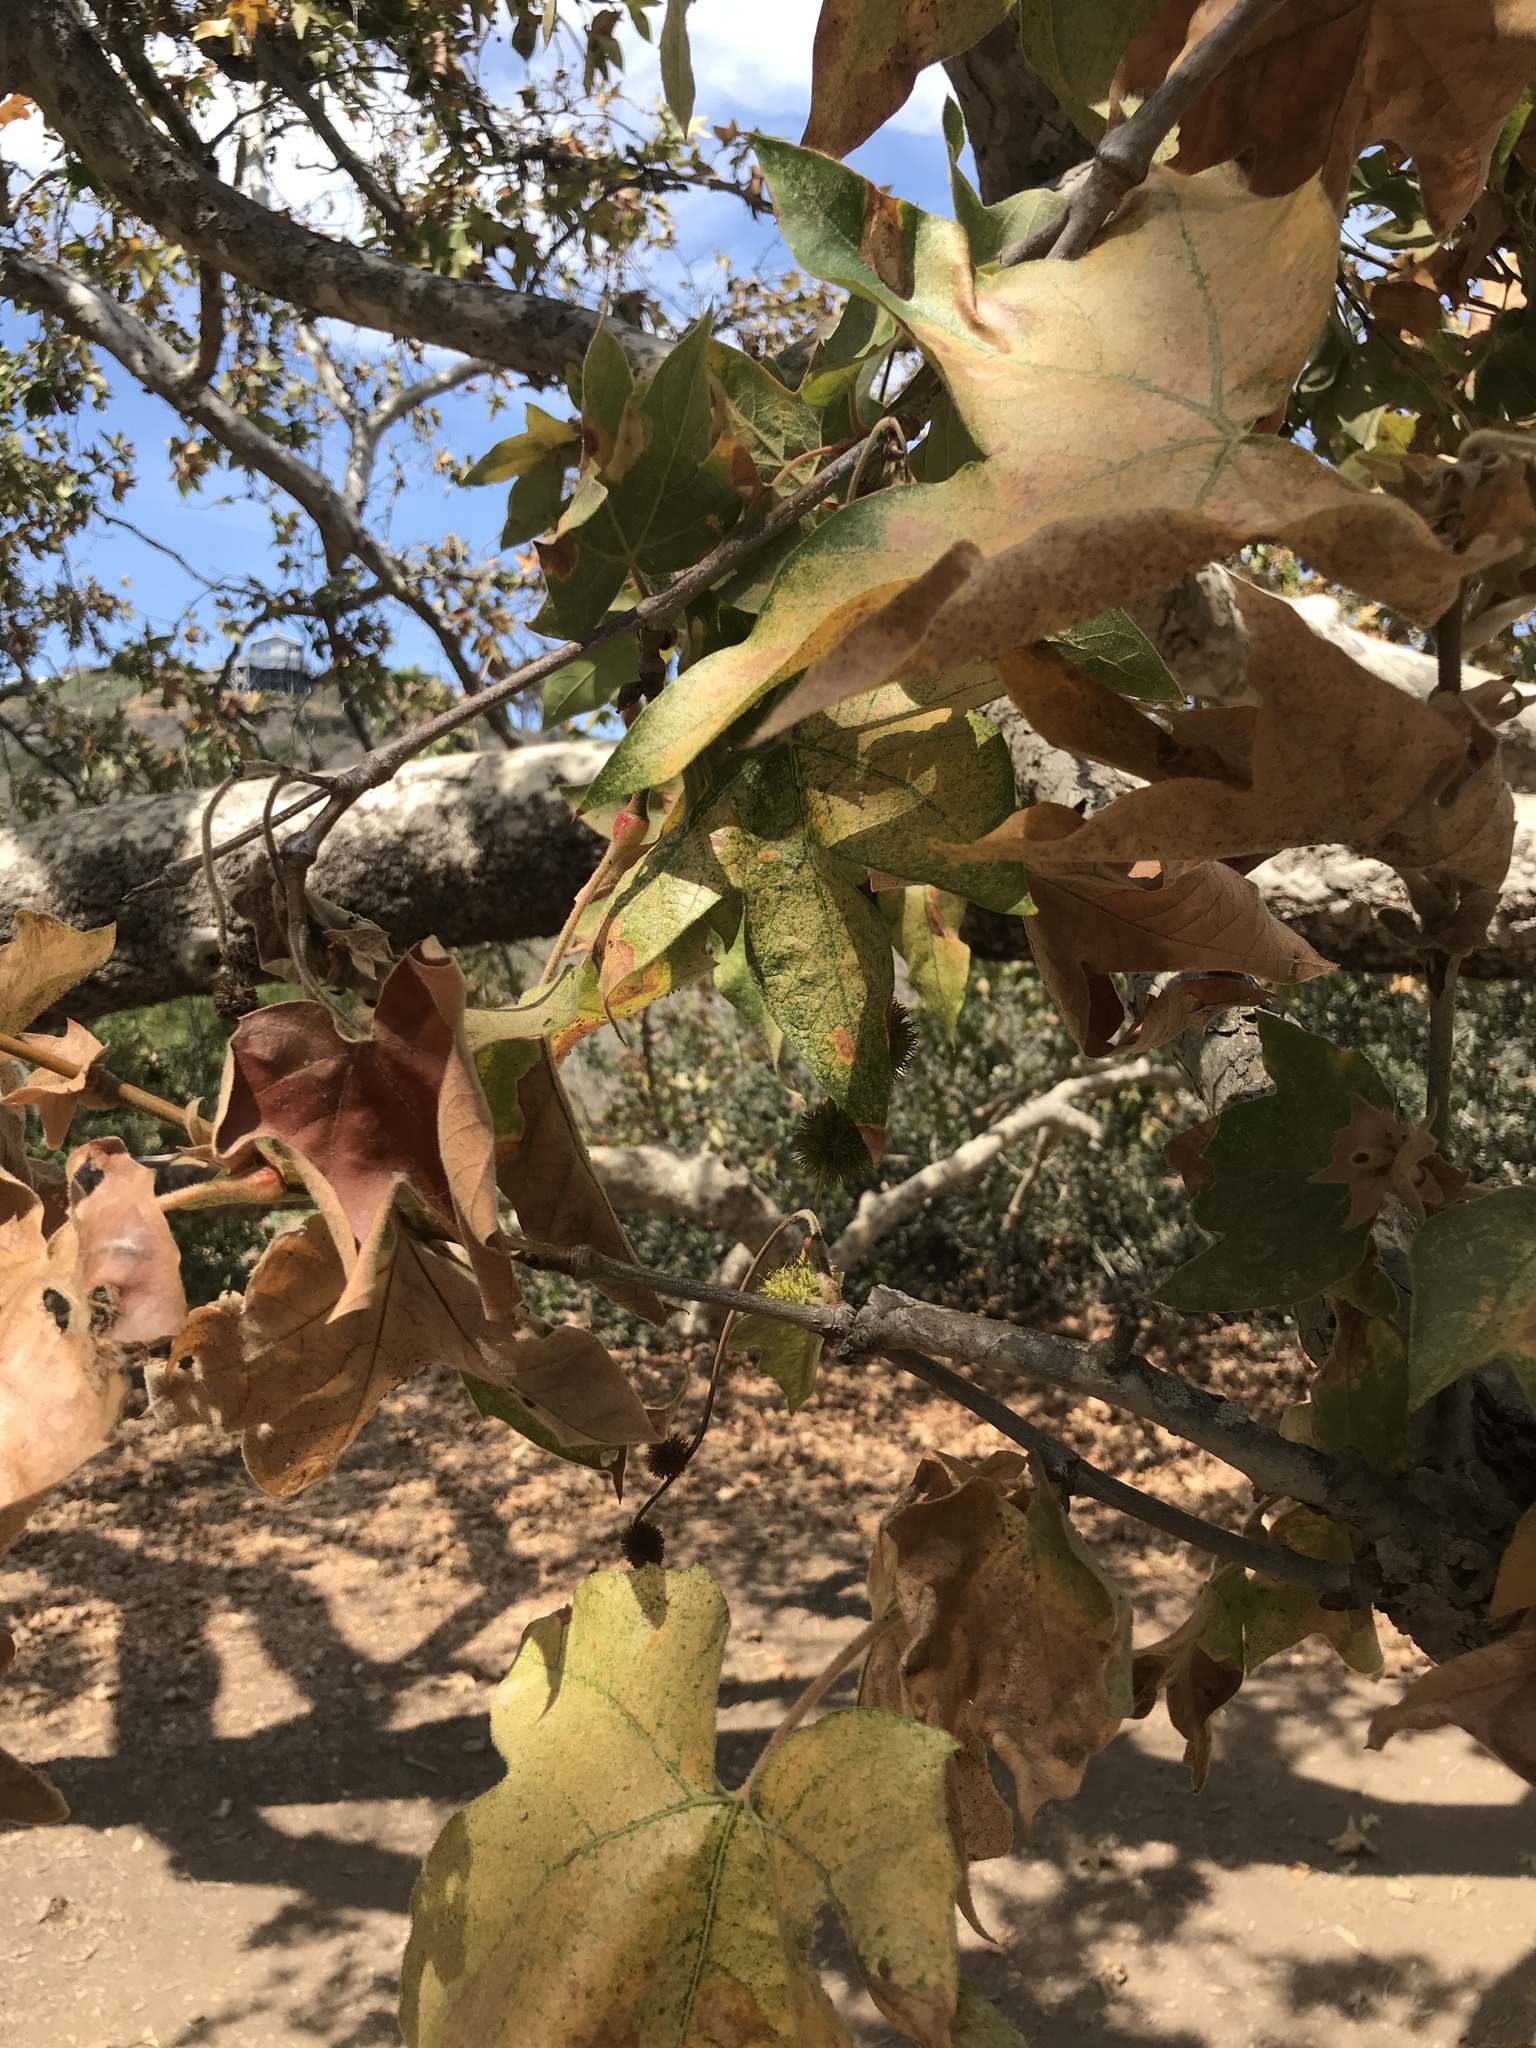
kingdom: Plantae
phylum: Tracheophyta
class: Magnoliopsida
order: Proteales
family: Platanaceae
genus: Platanus
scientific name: Platanus racemosa
